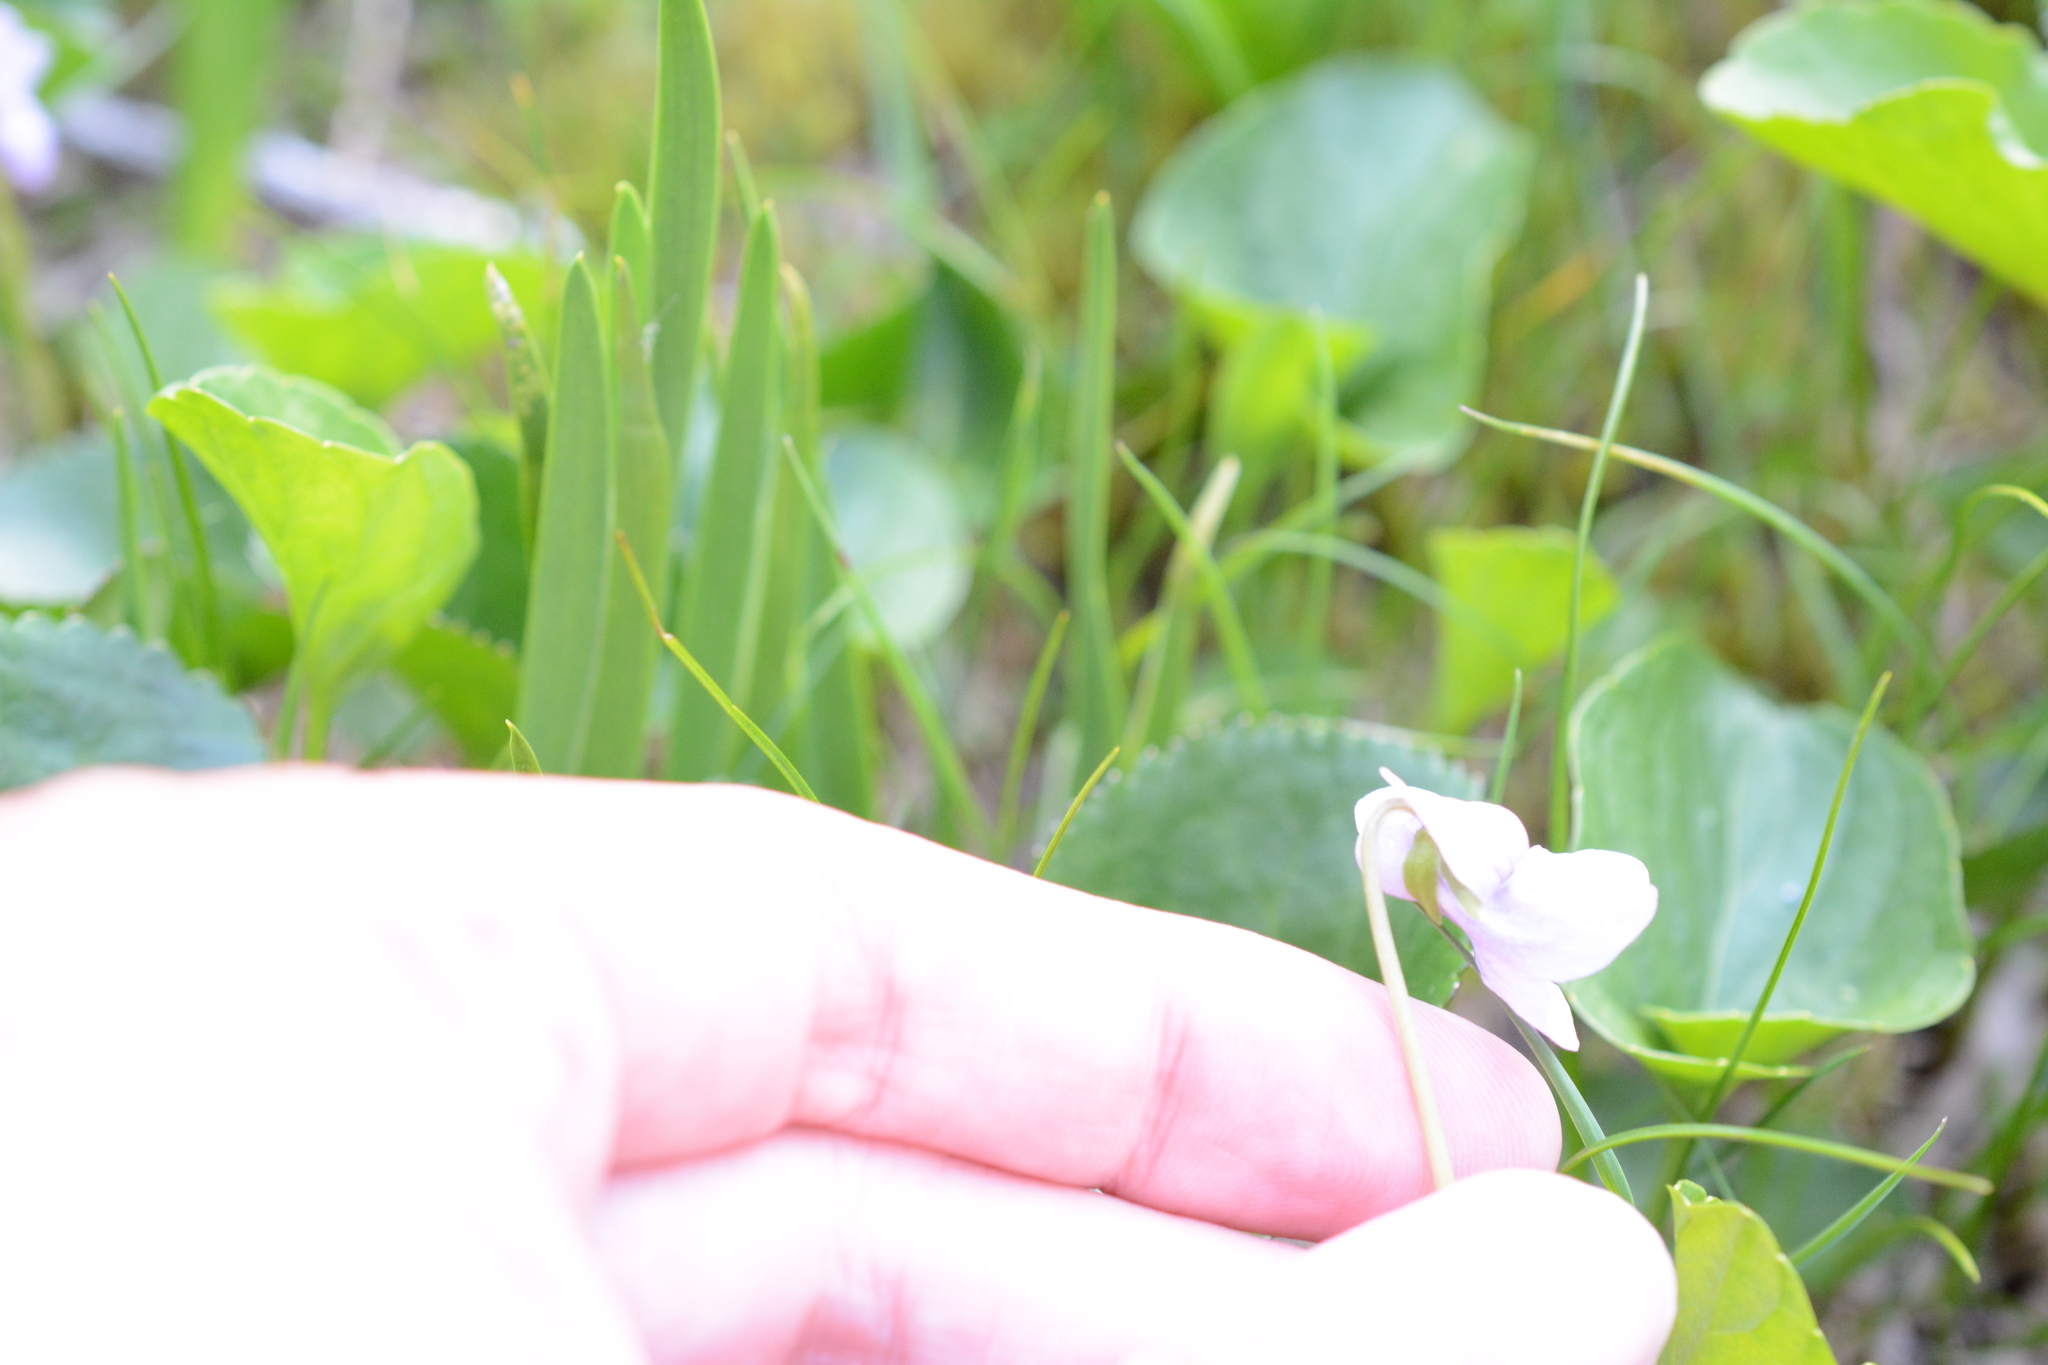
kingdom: Plantae
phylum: Tracheophyta
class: Magnoliopsida
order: Malpighiales
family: Violaceae
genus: Viola
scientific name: Viola palustris
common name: Marsh violet
